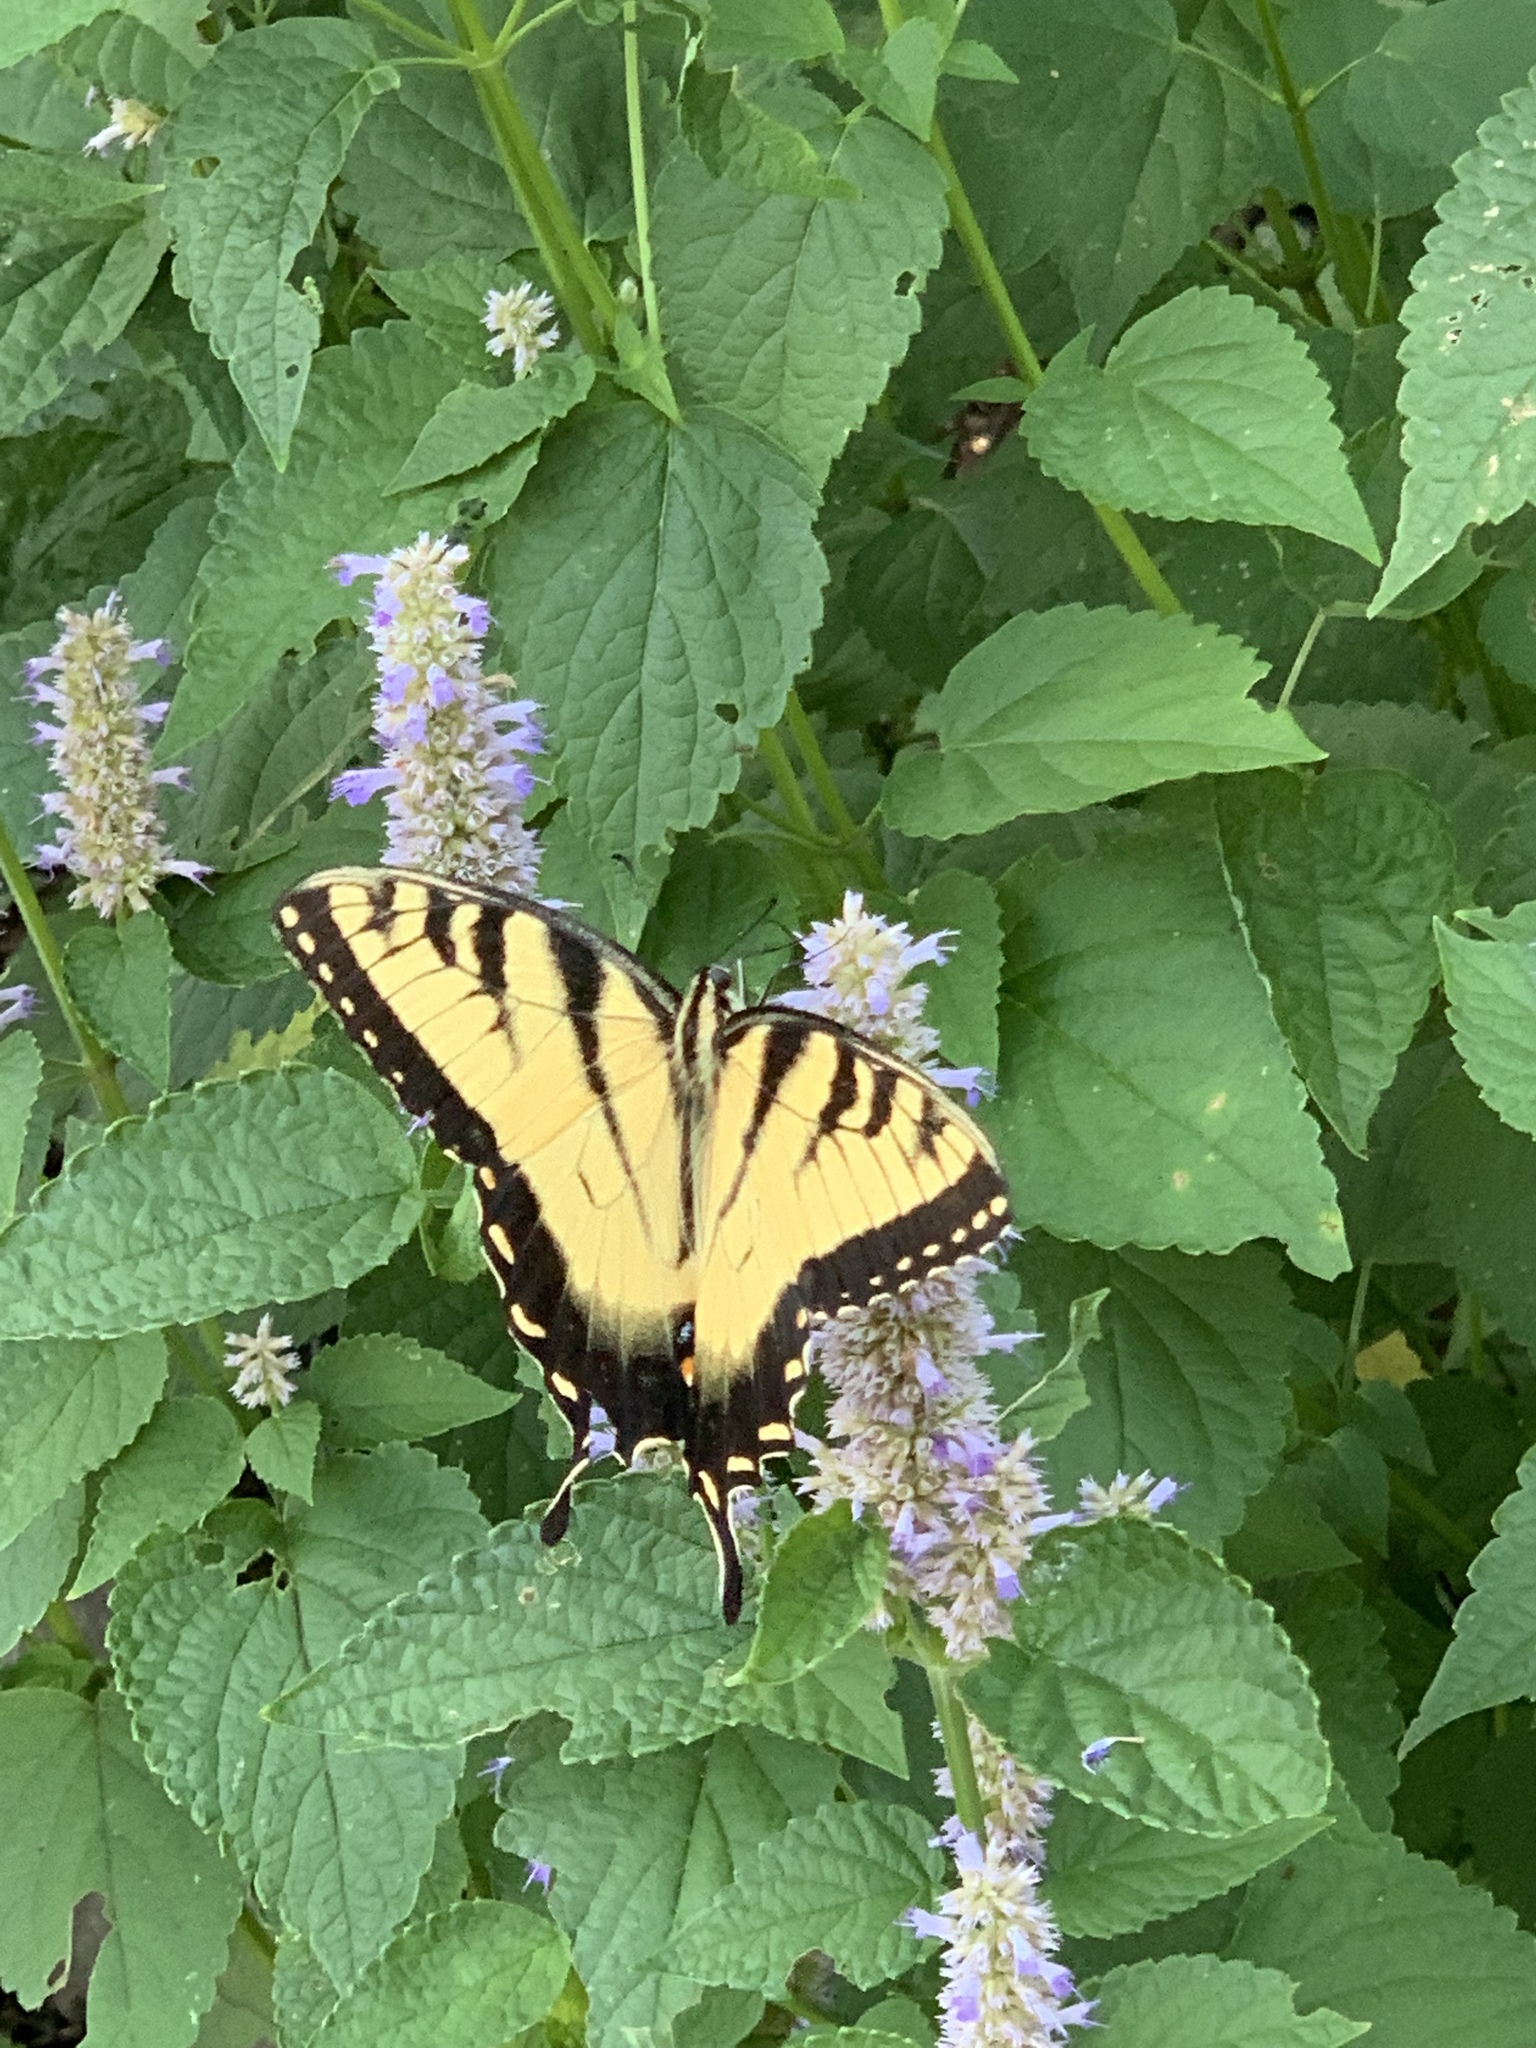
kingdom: Animalia
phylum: Arthropoda
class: Insecta
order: Lepidoptera
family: Papilionidae
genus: Papilio
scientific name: Papilio glaucus
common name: Tiger swallowtail
